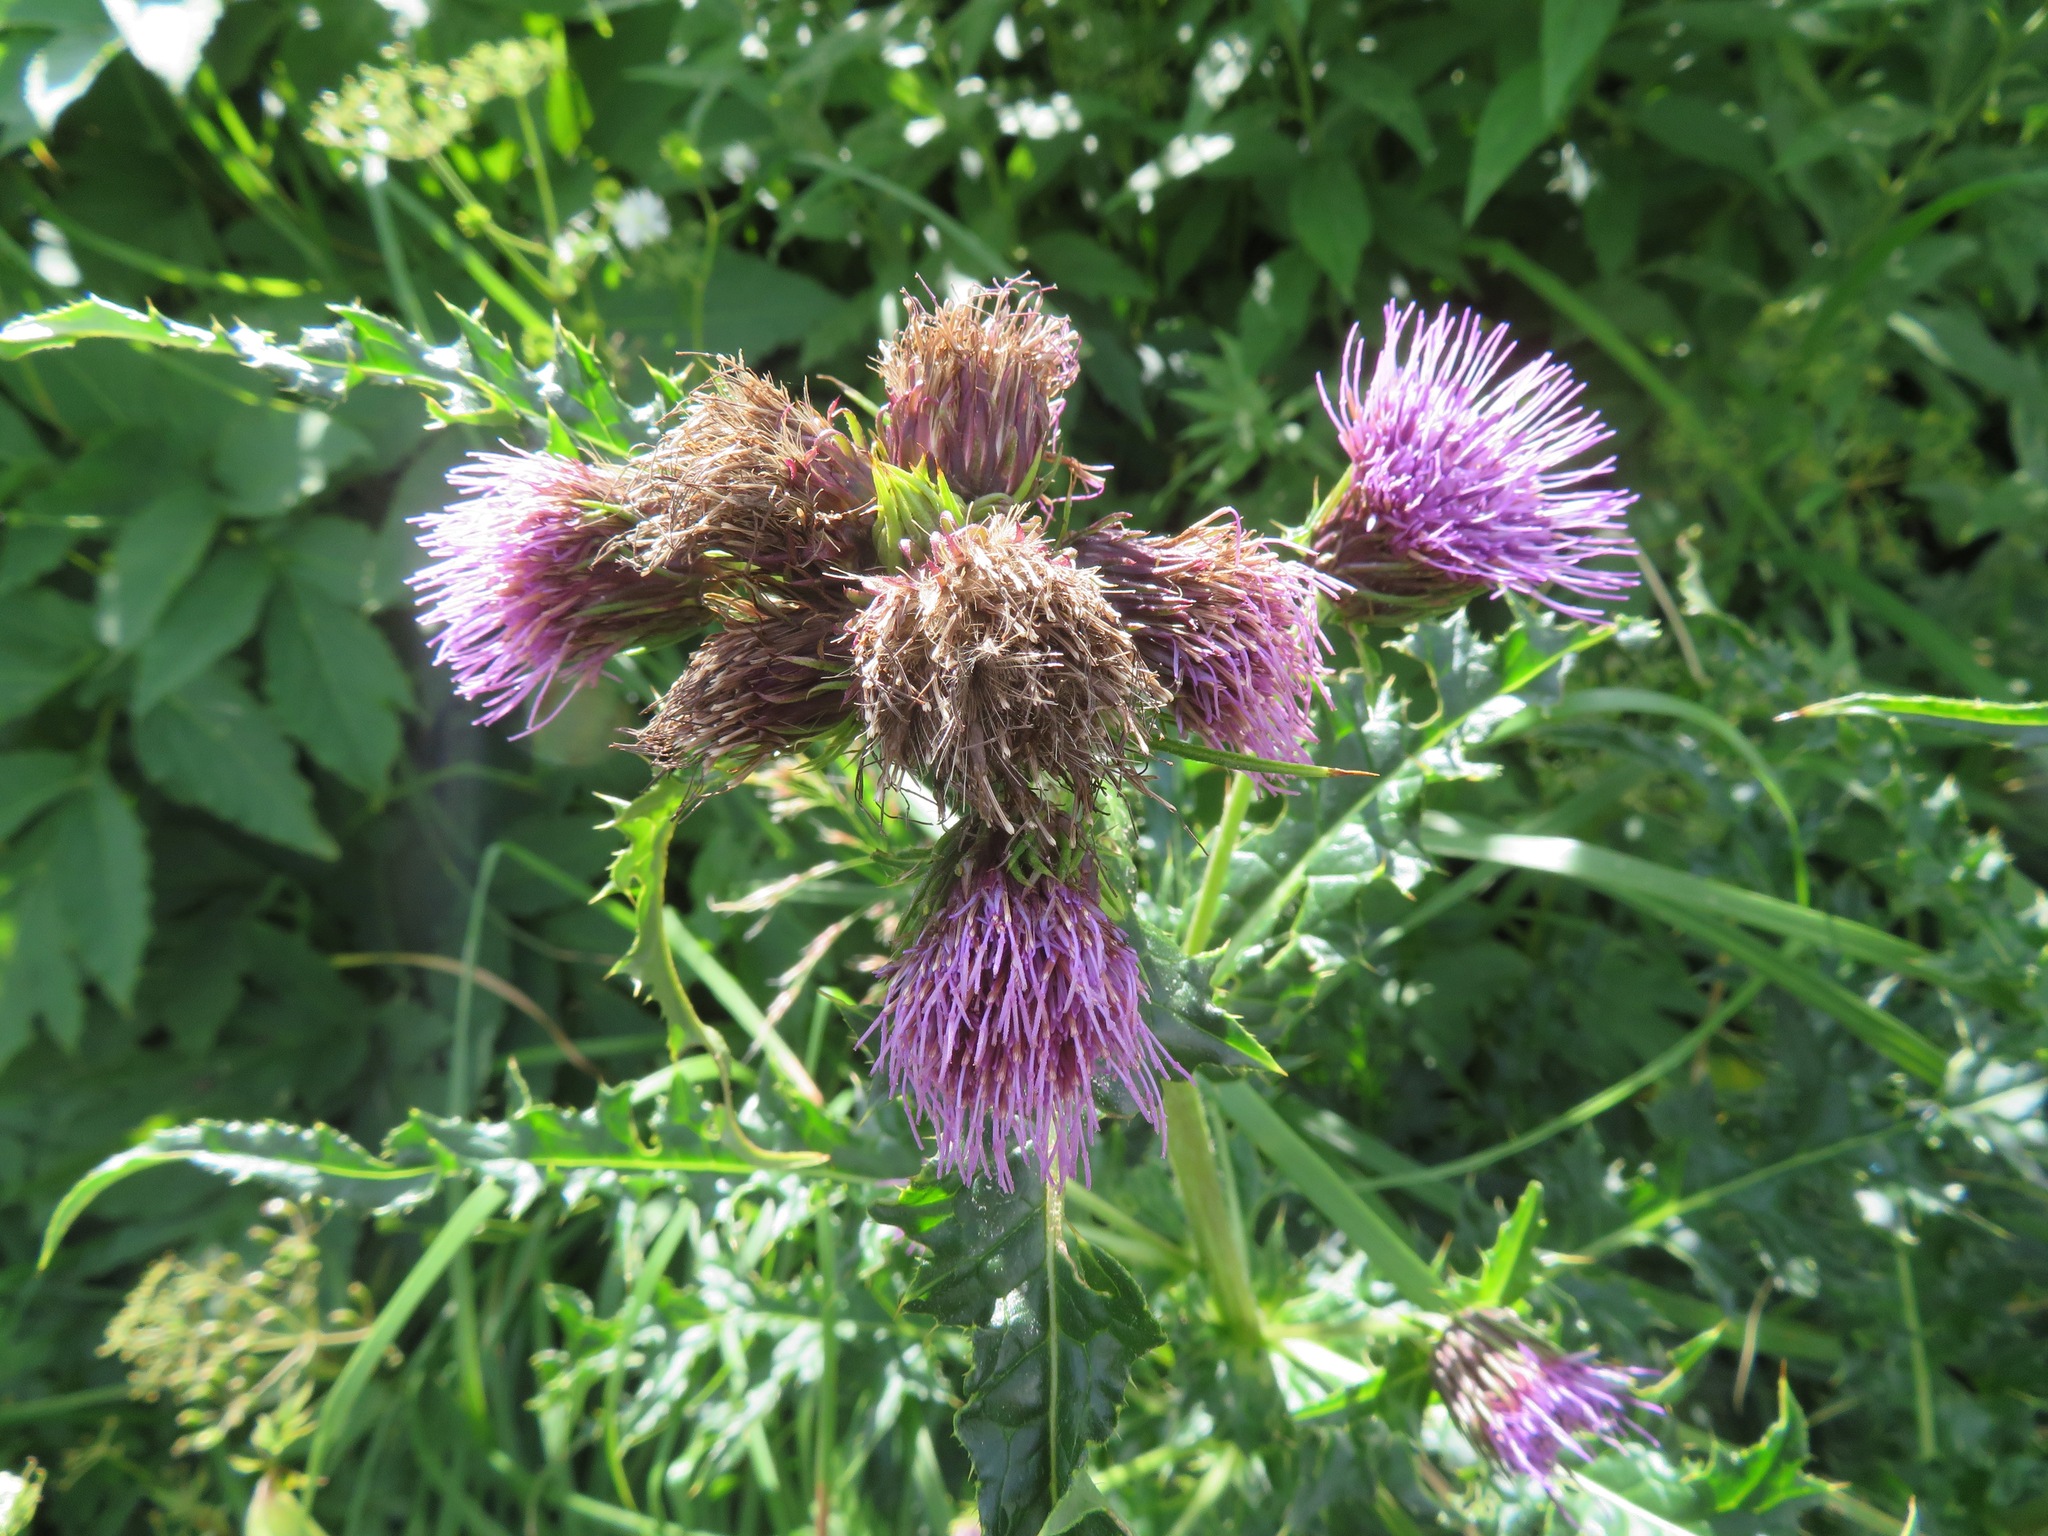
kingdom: Plantae
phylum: Tracheophyta
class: Magnoliopsida
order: Asterales
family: Asteraceae
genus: Cirsium
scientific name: Cirsium nambuense
